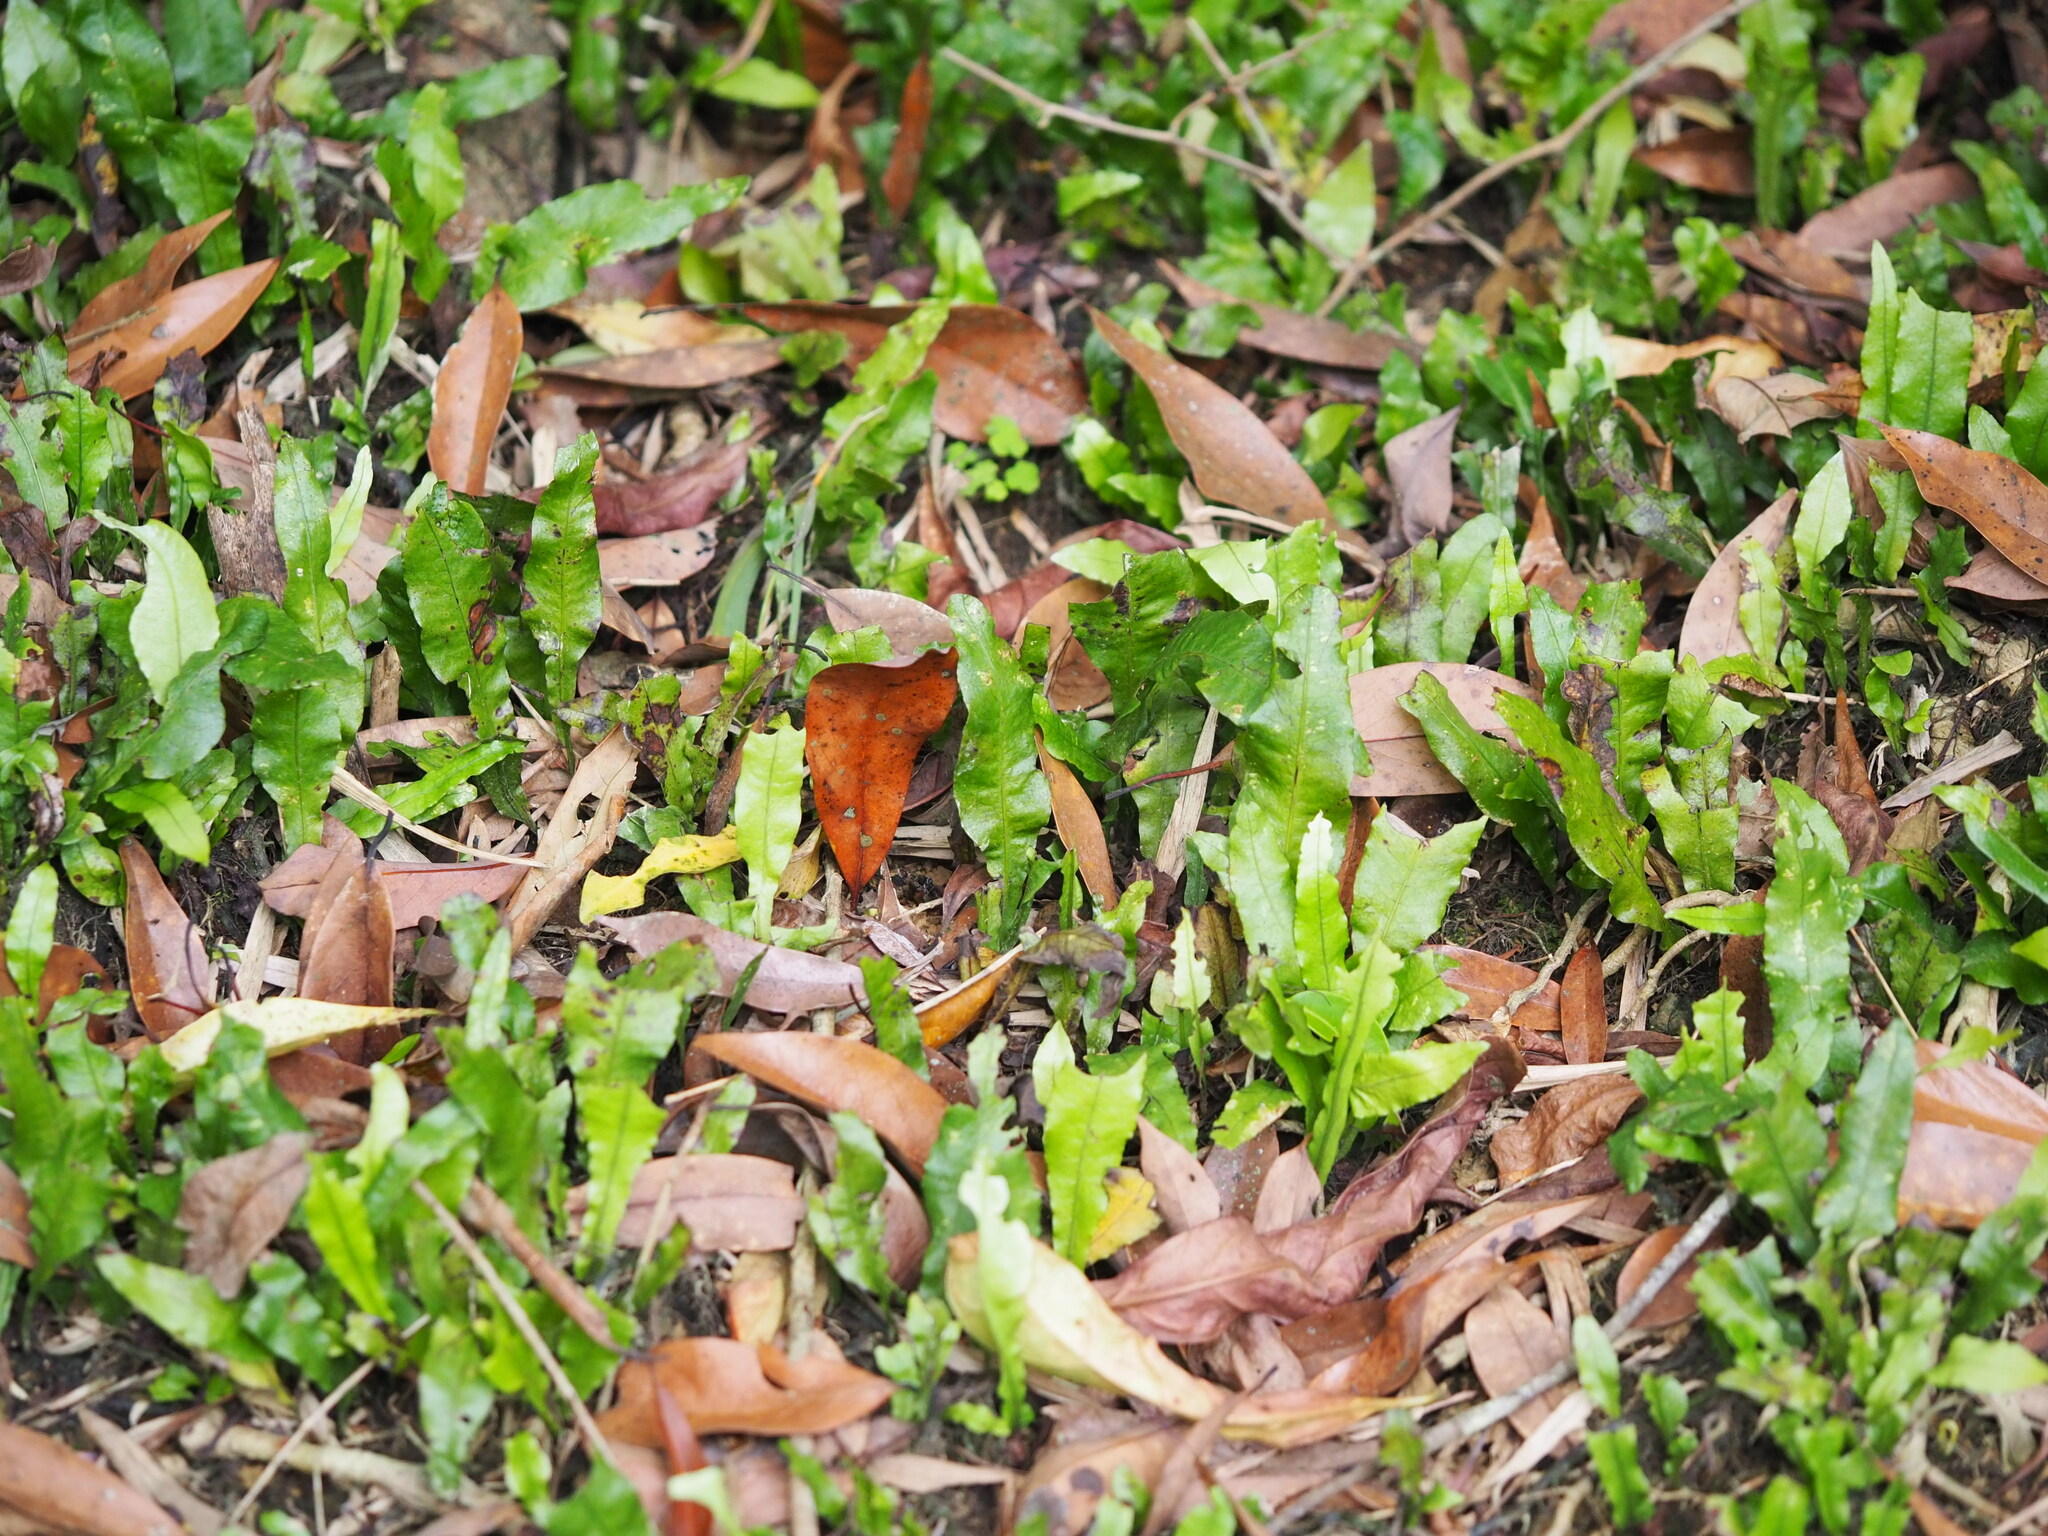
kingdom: Plantae
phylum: Tracheophyta
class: Polypodiopsida
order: Polypodiales
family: Polypodiaceae
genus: Leptochilus
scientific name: Leptochilus wrightii
